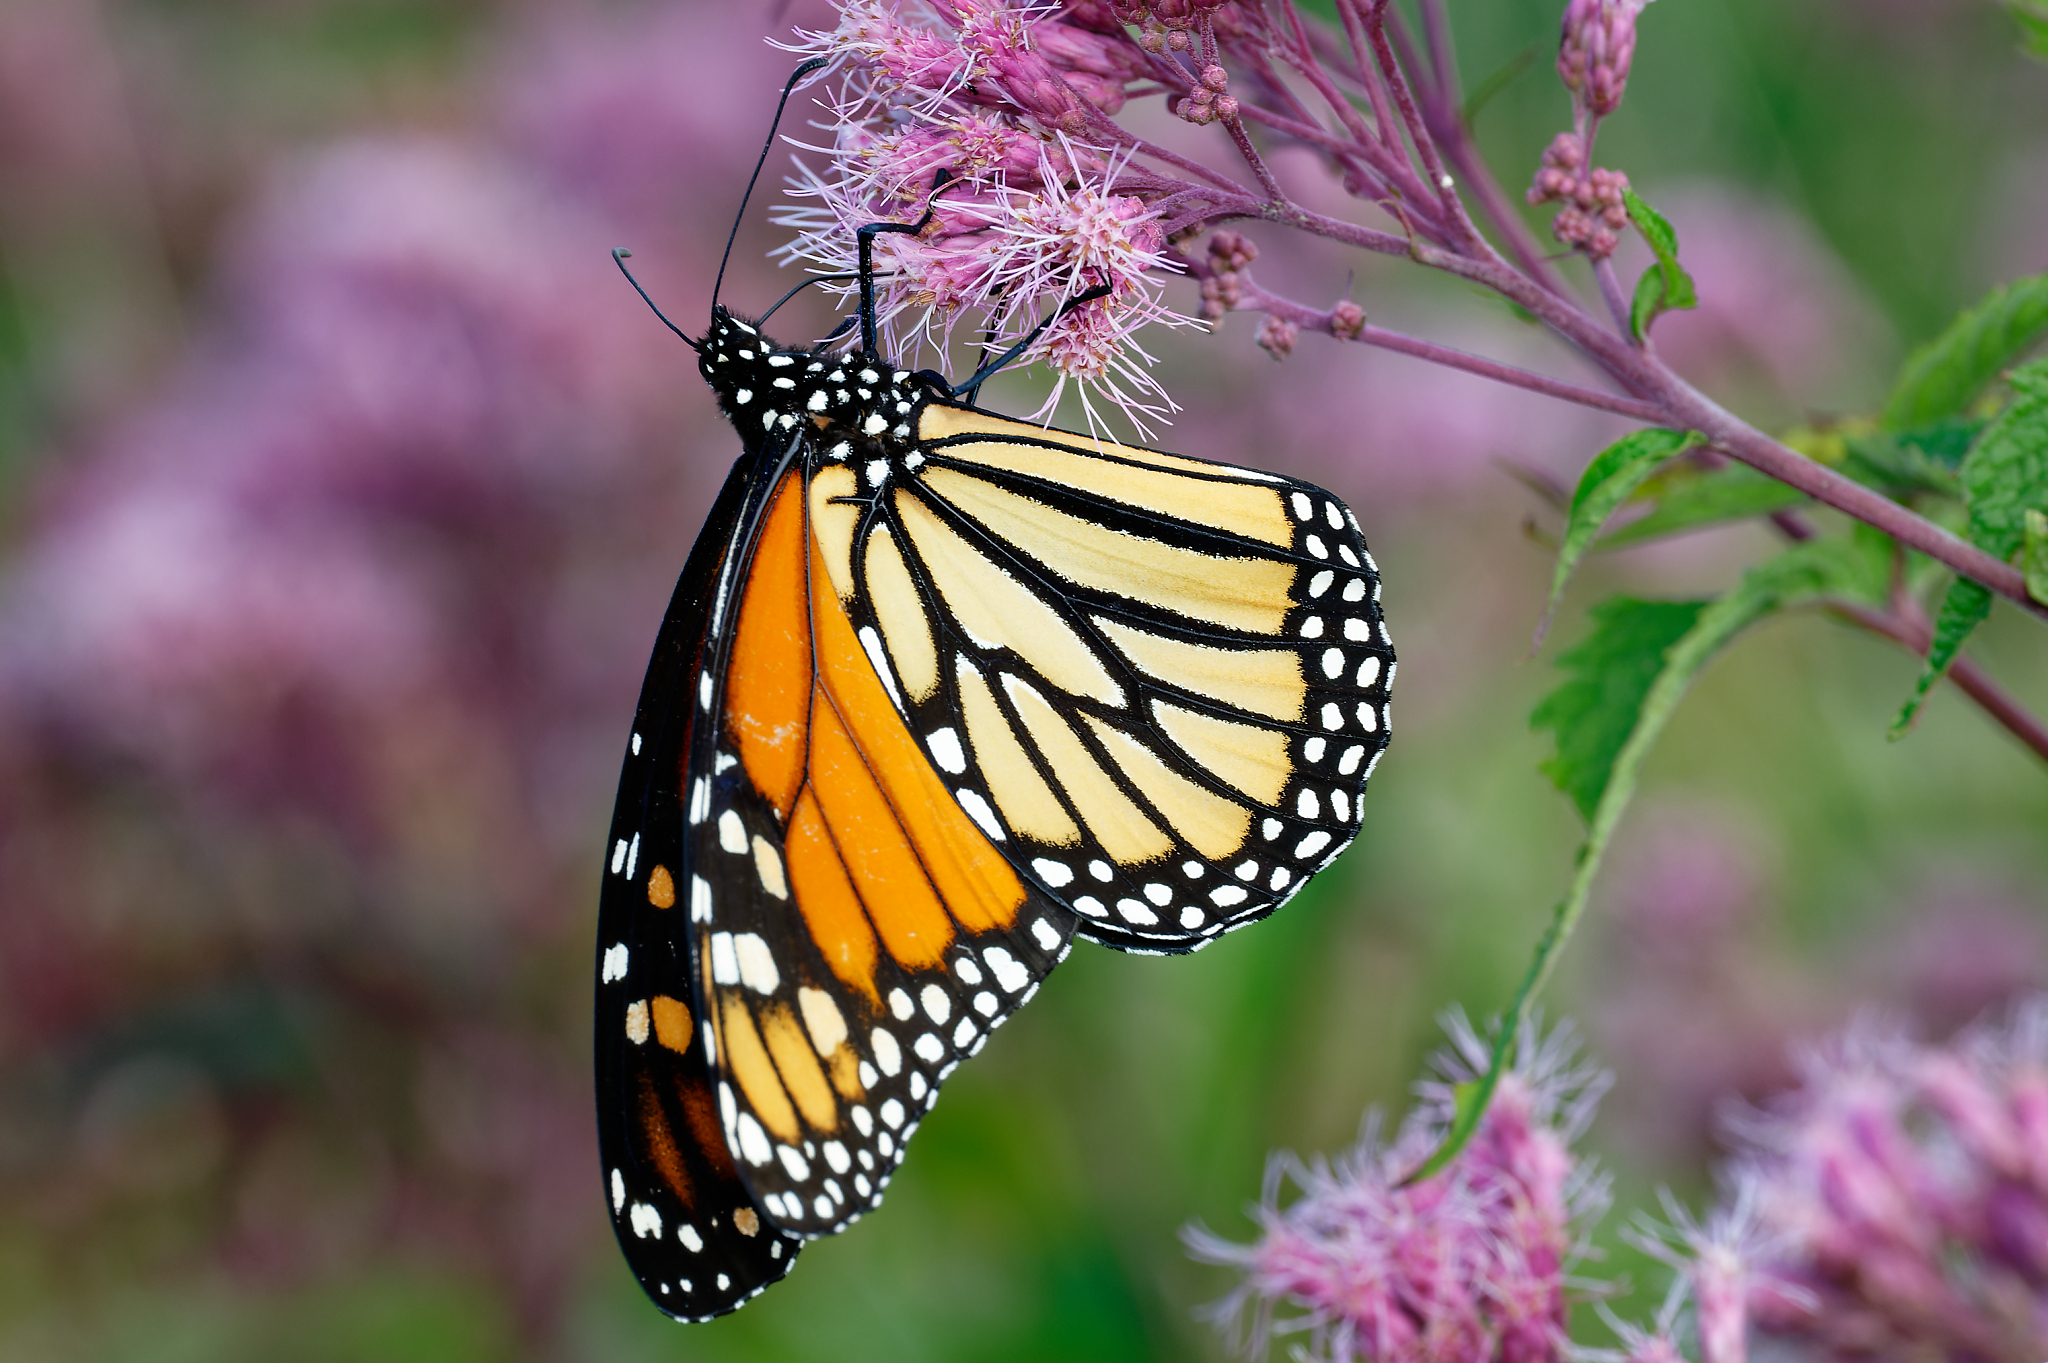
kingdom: Animalia
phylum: Arthropoda
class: Insecta
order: Lepidoptera
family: Nymphalidae
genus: Danaus
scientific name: Danaus plexippus
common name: Monarch
